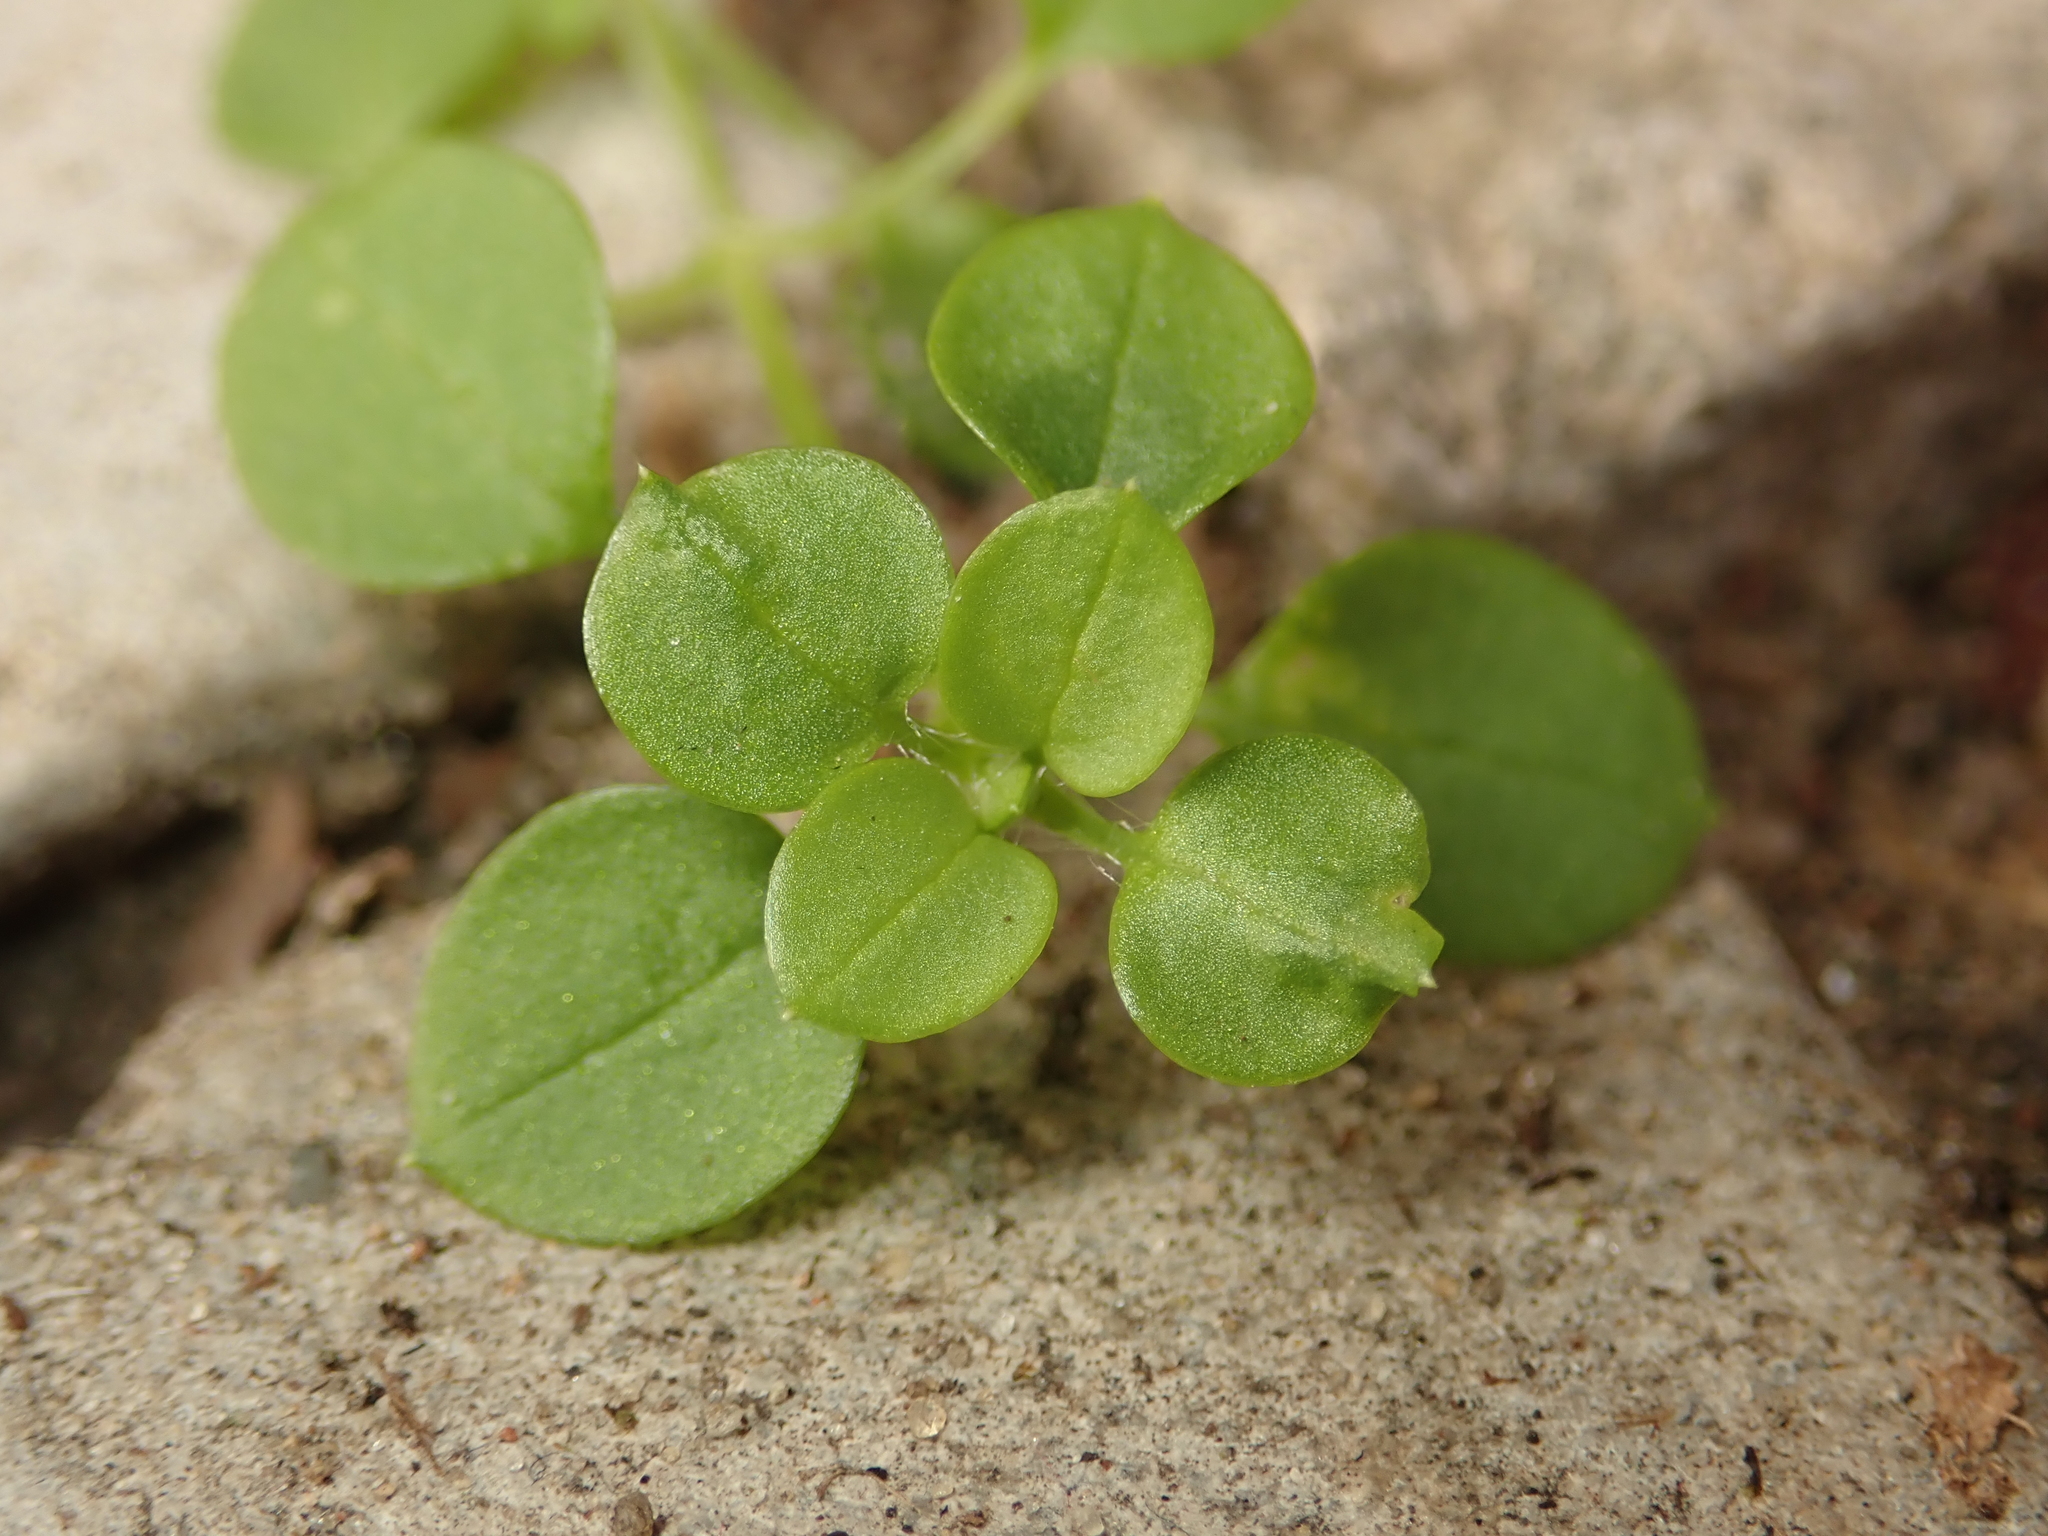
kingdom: Plantae
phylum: Tracheophyta
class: Magnoliopsida
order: Caryophyllales
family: Caryophyllaceae
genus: Stellaria
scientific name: Stellaria media
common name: Common chickweed
